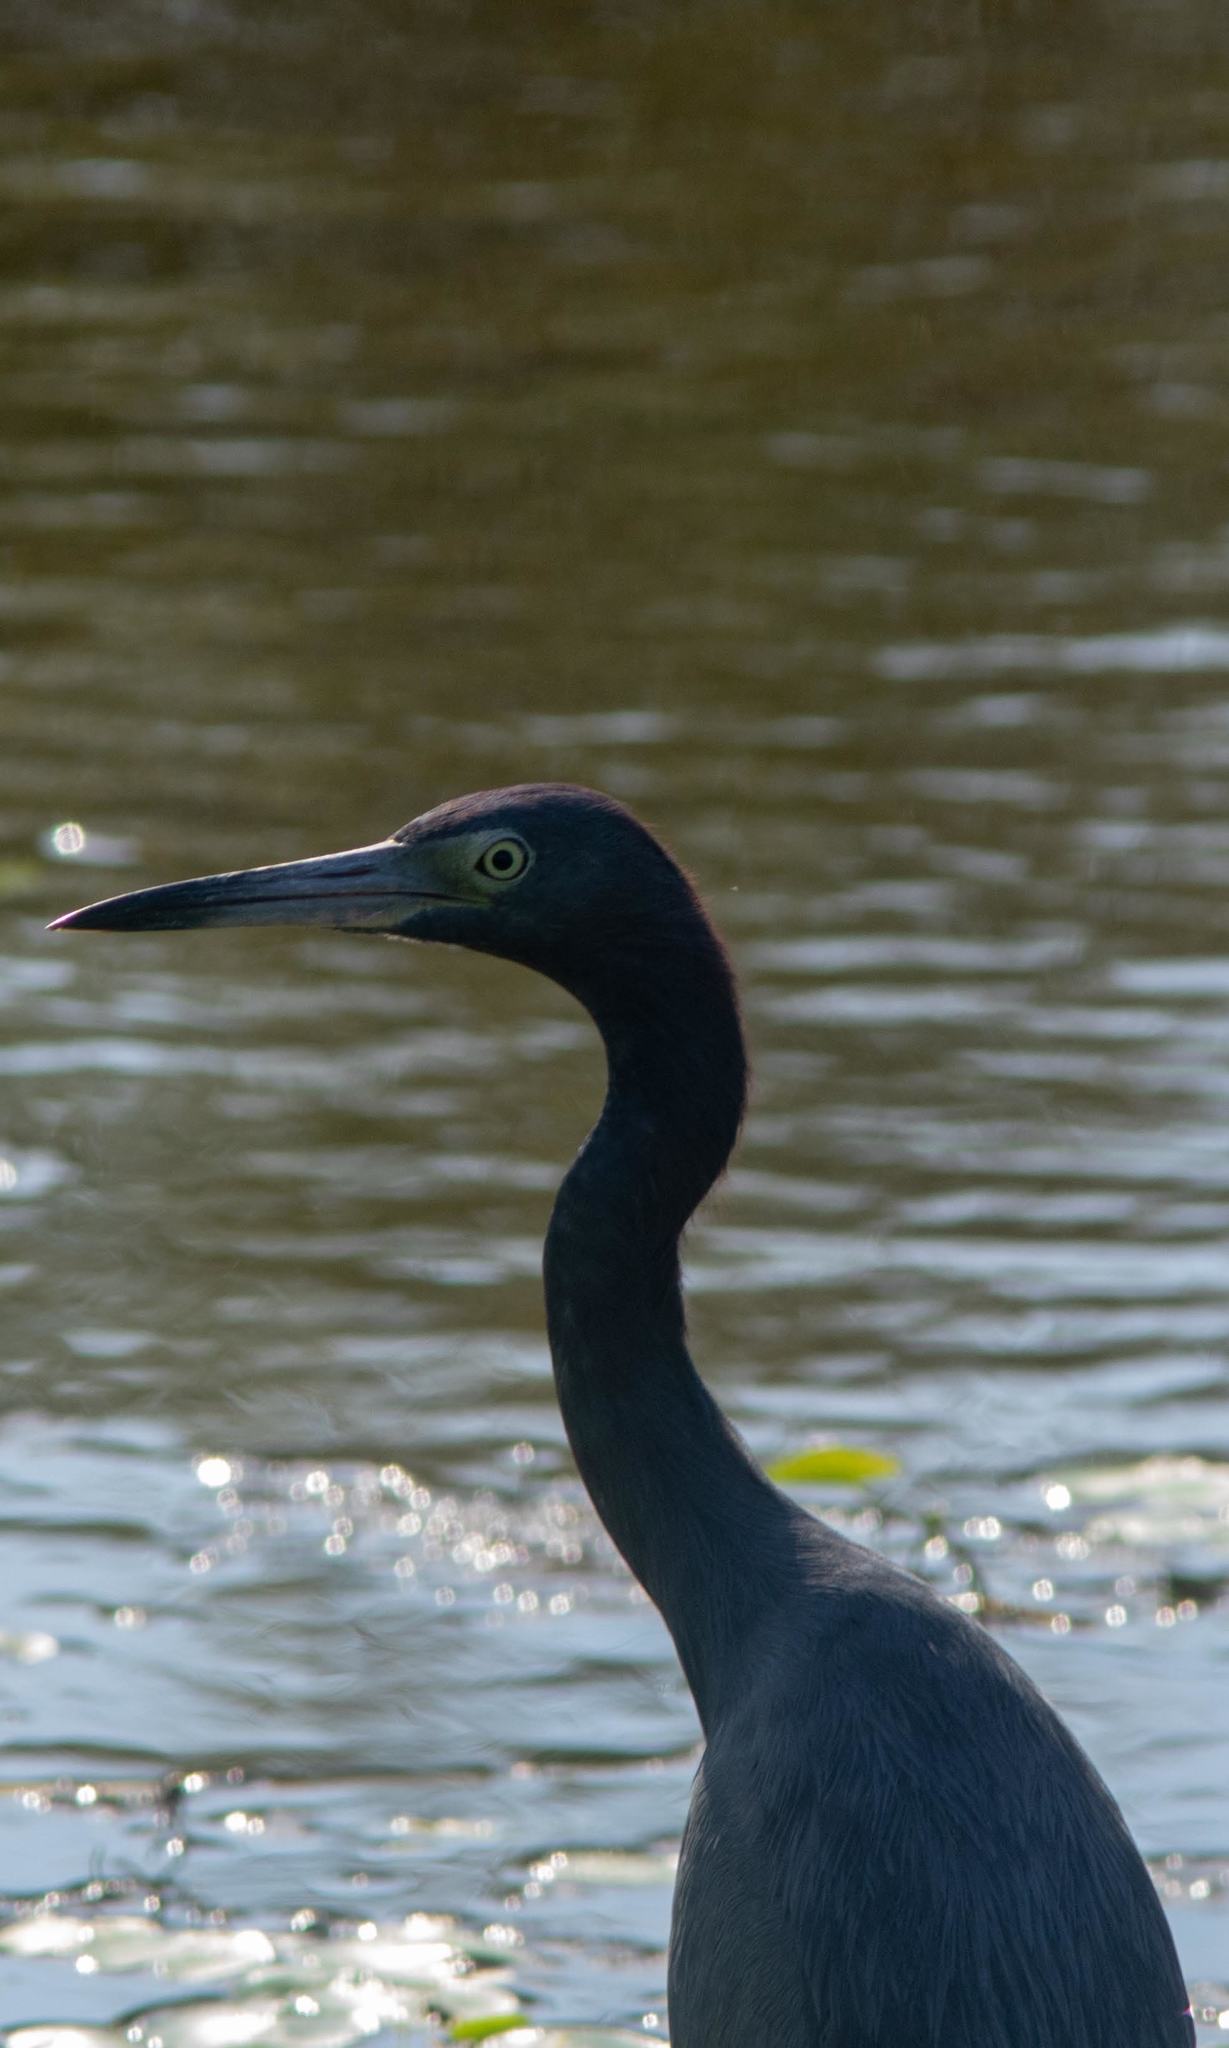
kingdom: Animalia
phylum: Chordata
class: Aves
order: Pelecaniformes
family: Ardeidae
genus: Egretta
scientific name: Egretta caerulea
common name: Little blue heron
